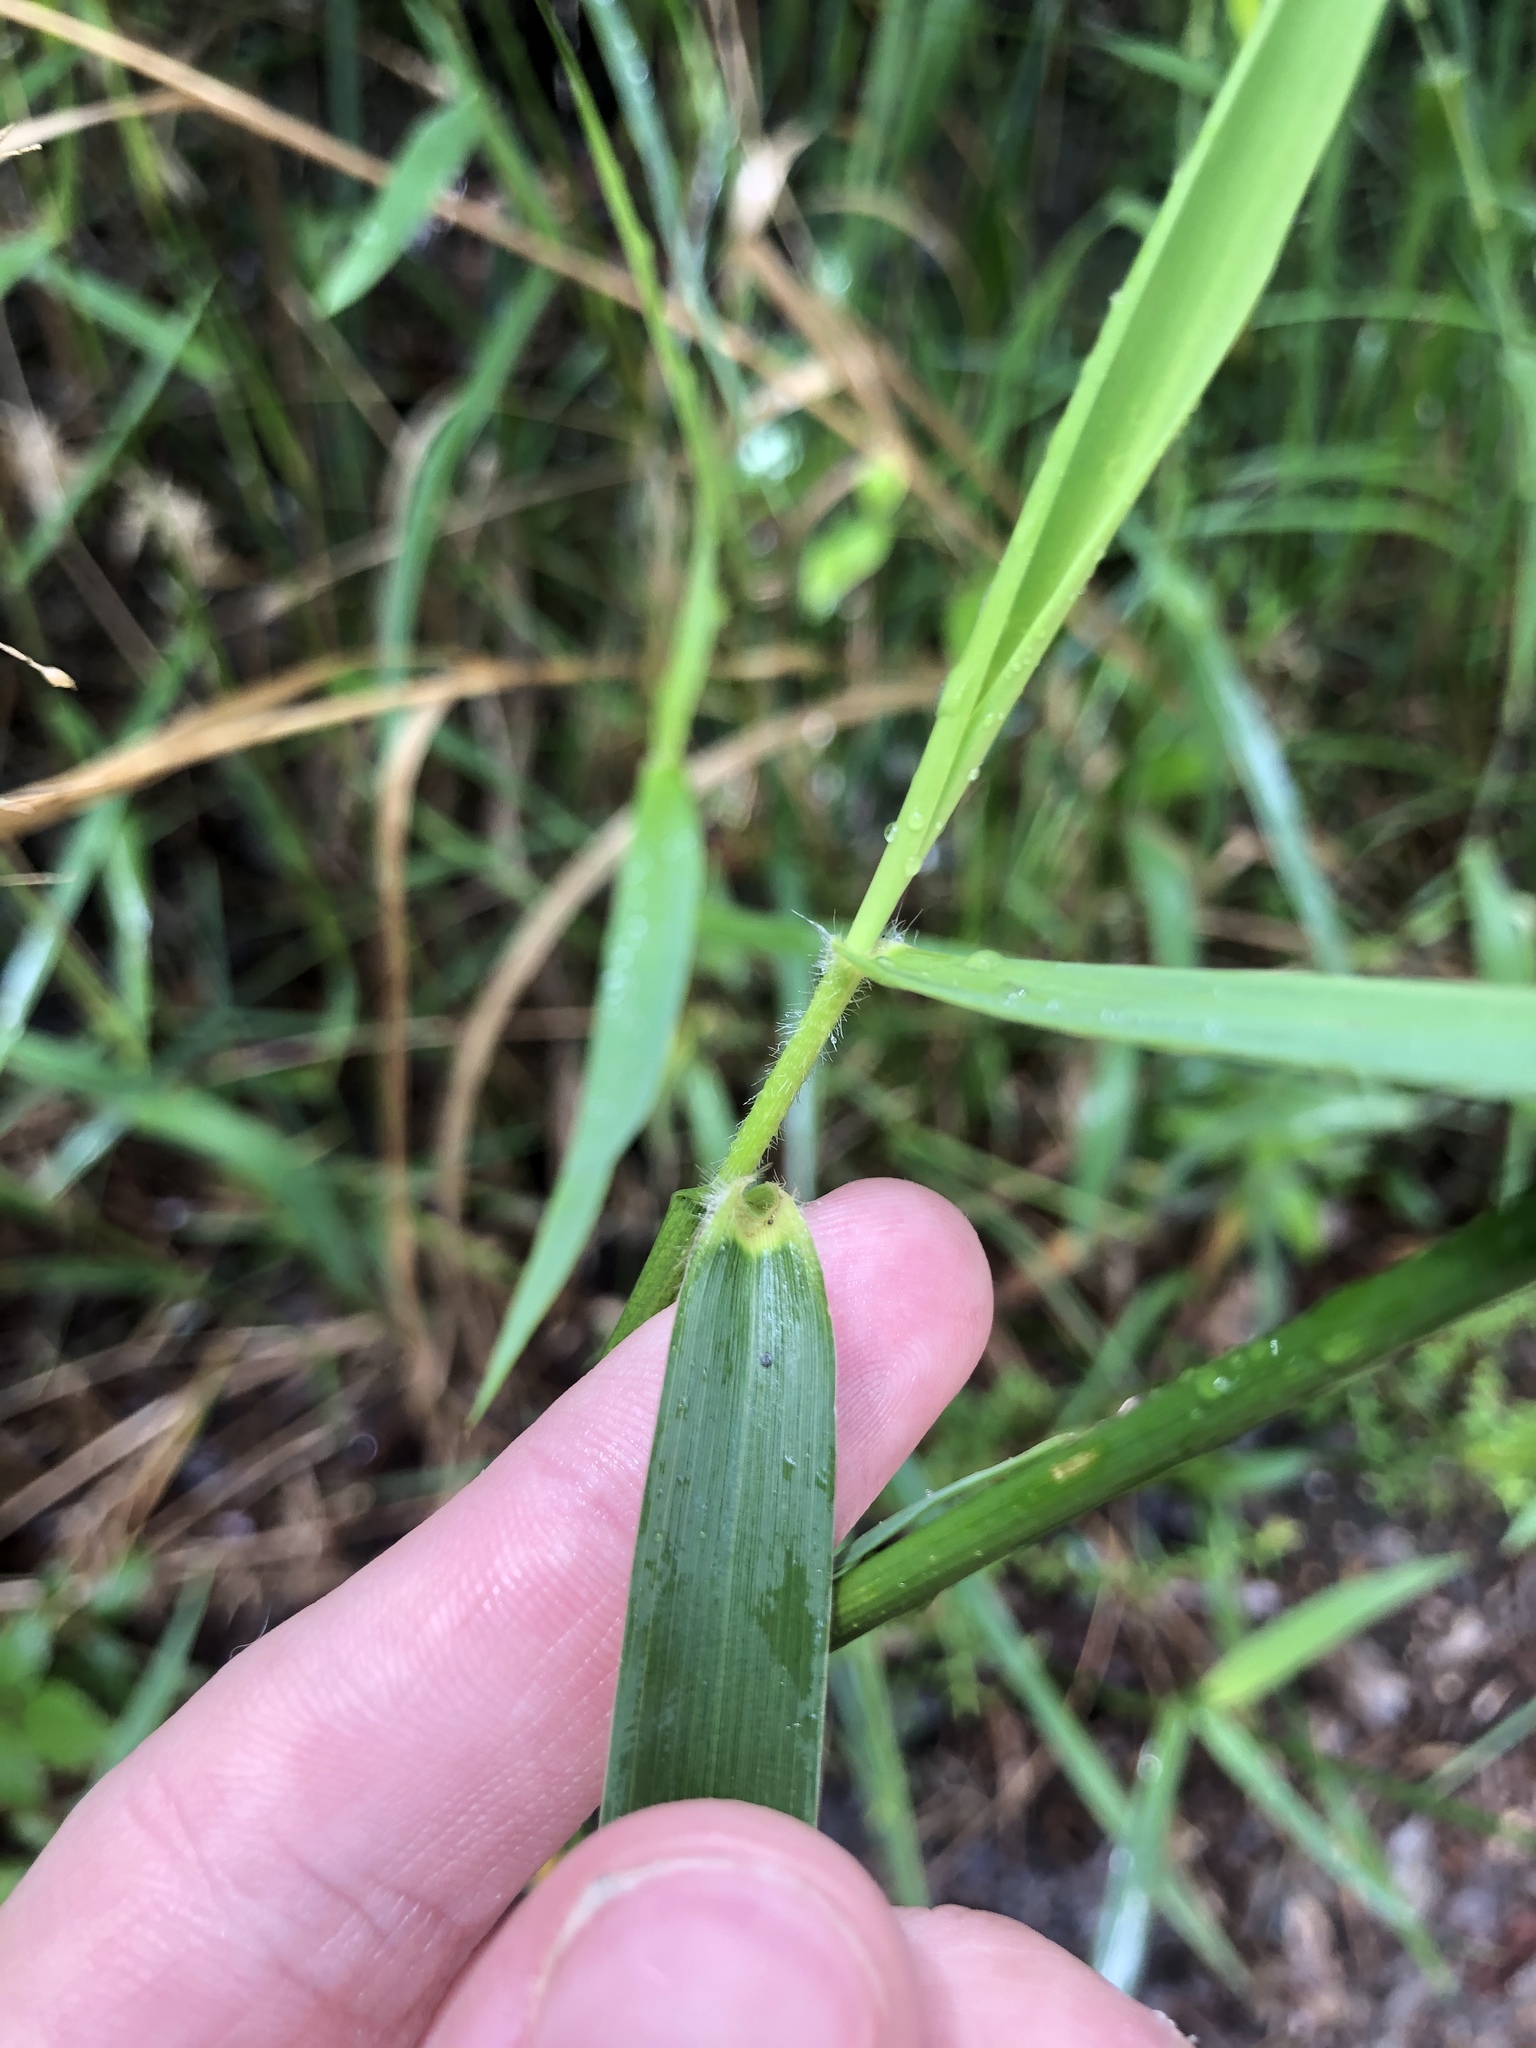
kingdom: Plantae
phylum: Tracheophyta
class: Liliopsida
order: Poales
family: Poaceae
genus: Dichanthelium
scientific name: Dichanthelium scabriusculum
